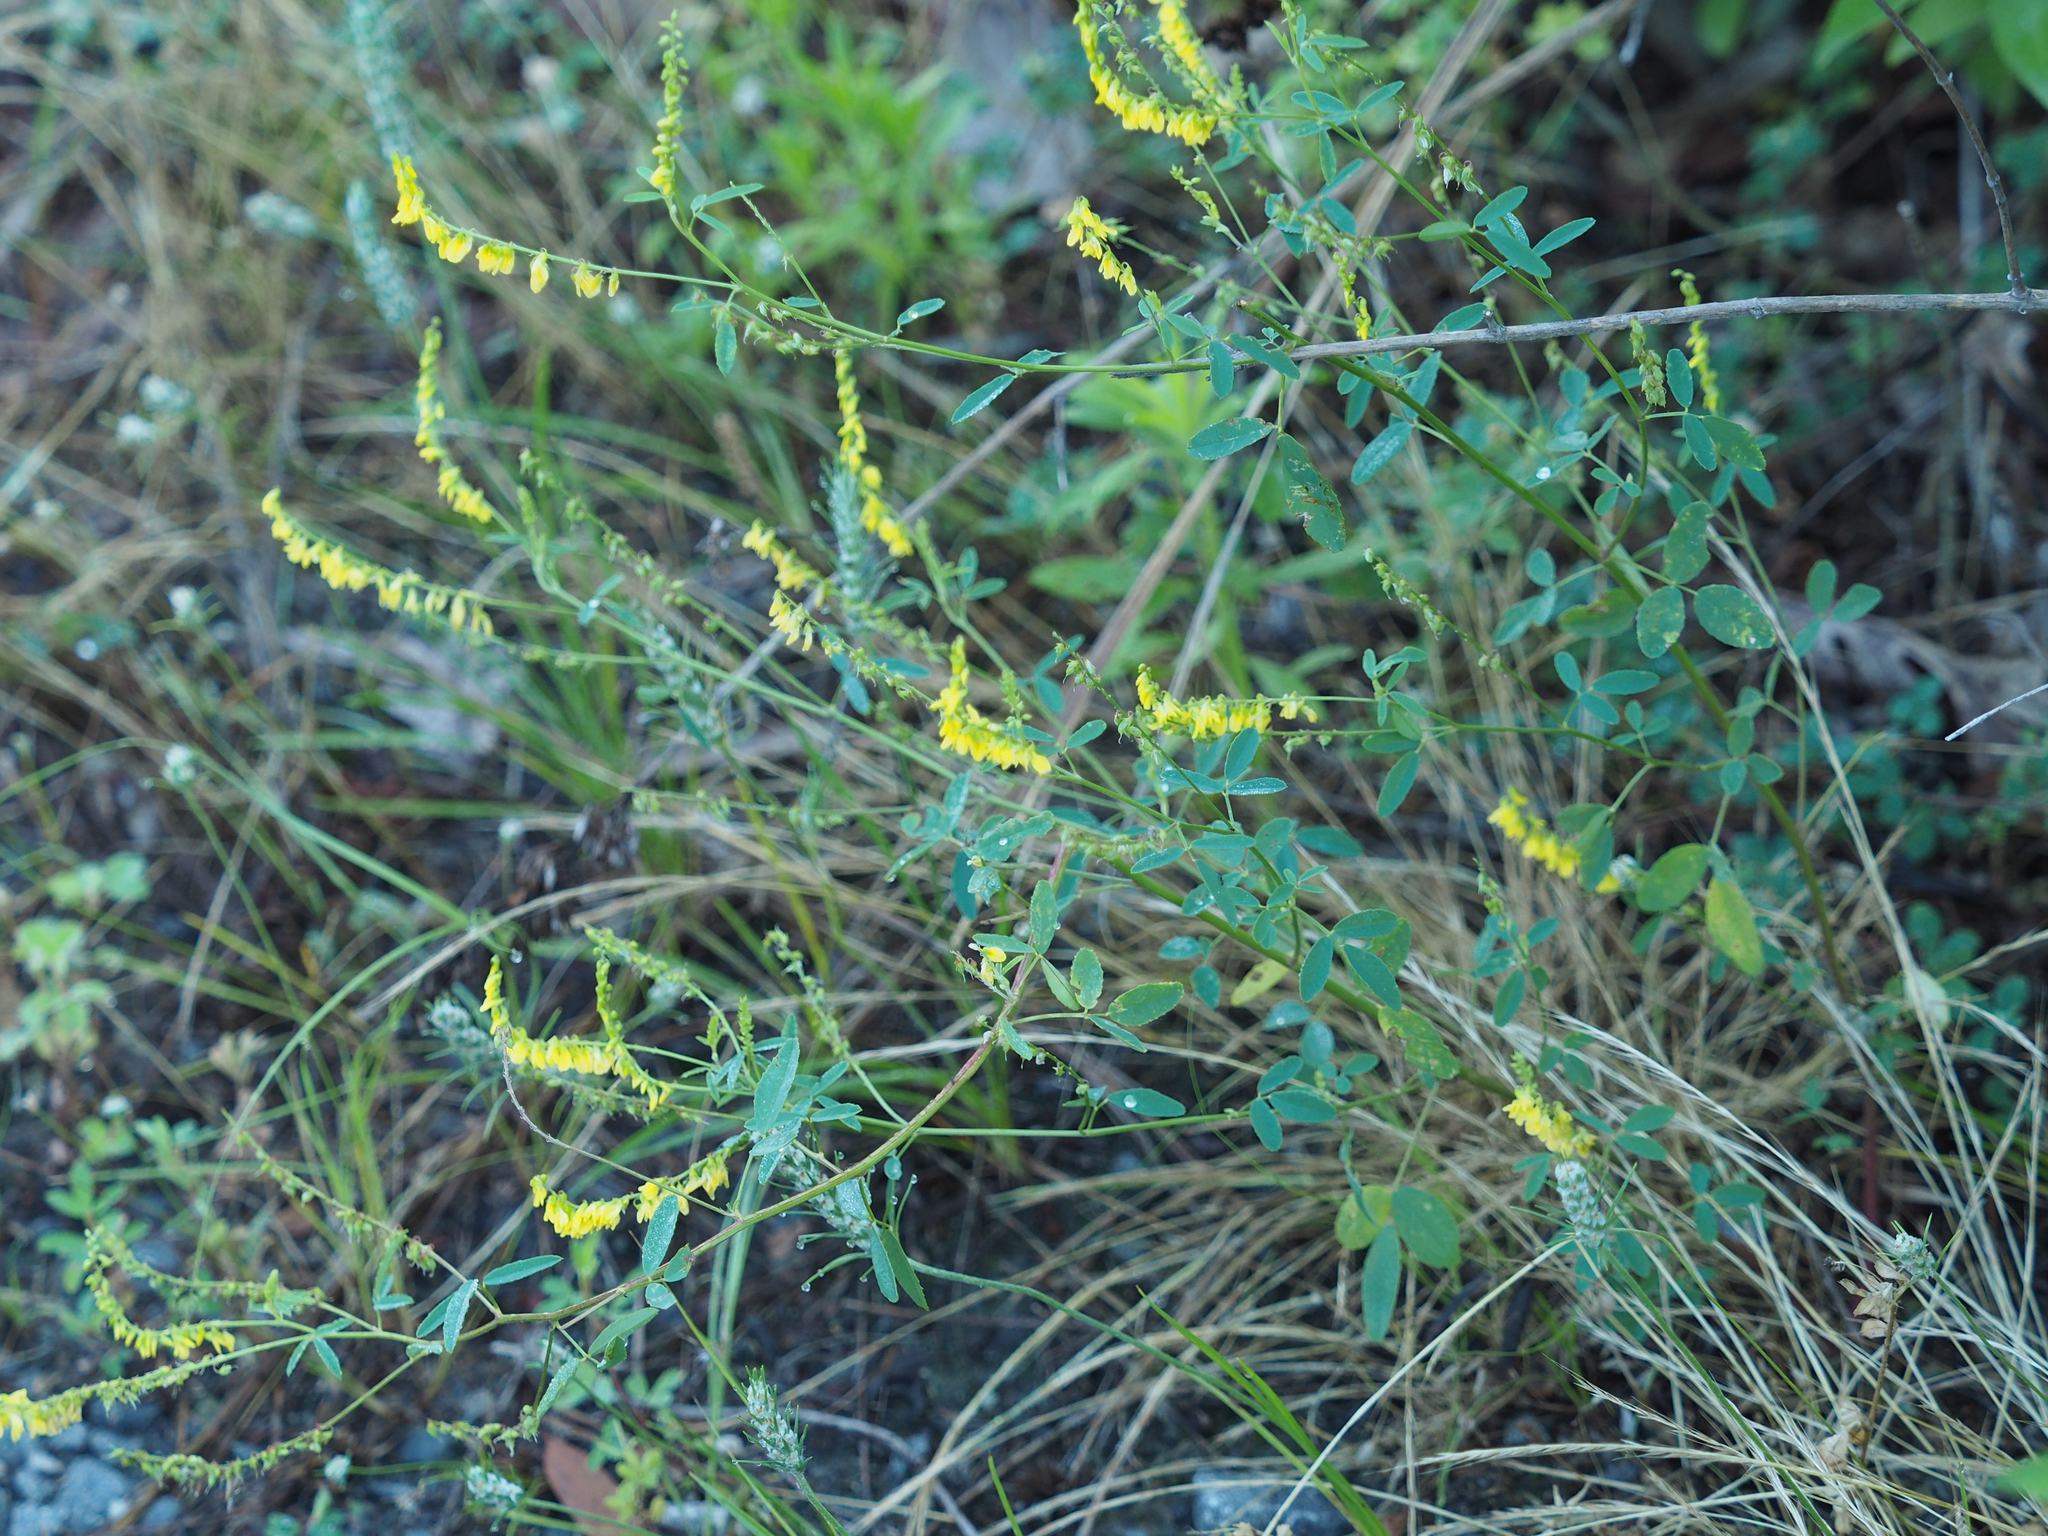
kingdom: Plantae
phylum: Tracheophyta
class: Magnoliopsida
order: Fabales
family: Fabaceae
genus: Melilotus
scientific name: Melilotus officinalis
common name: Sweetclover
